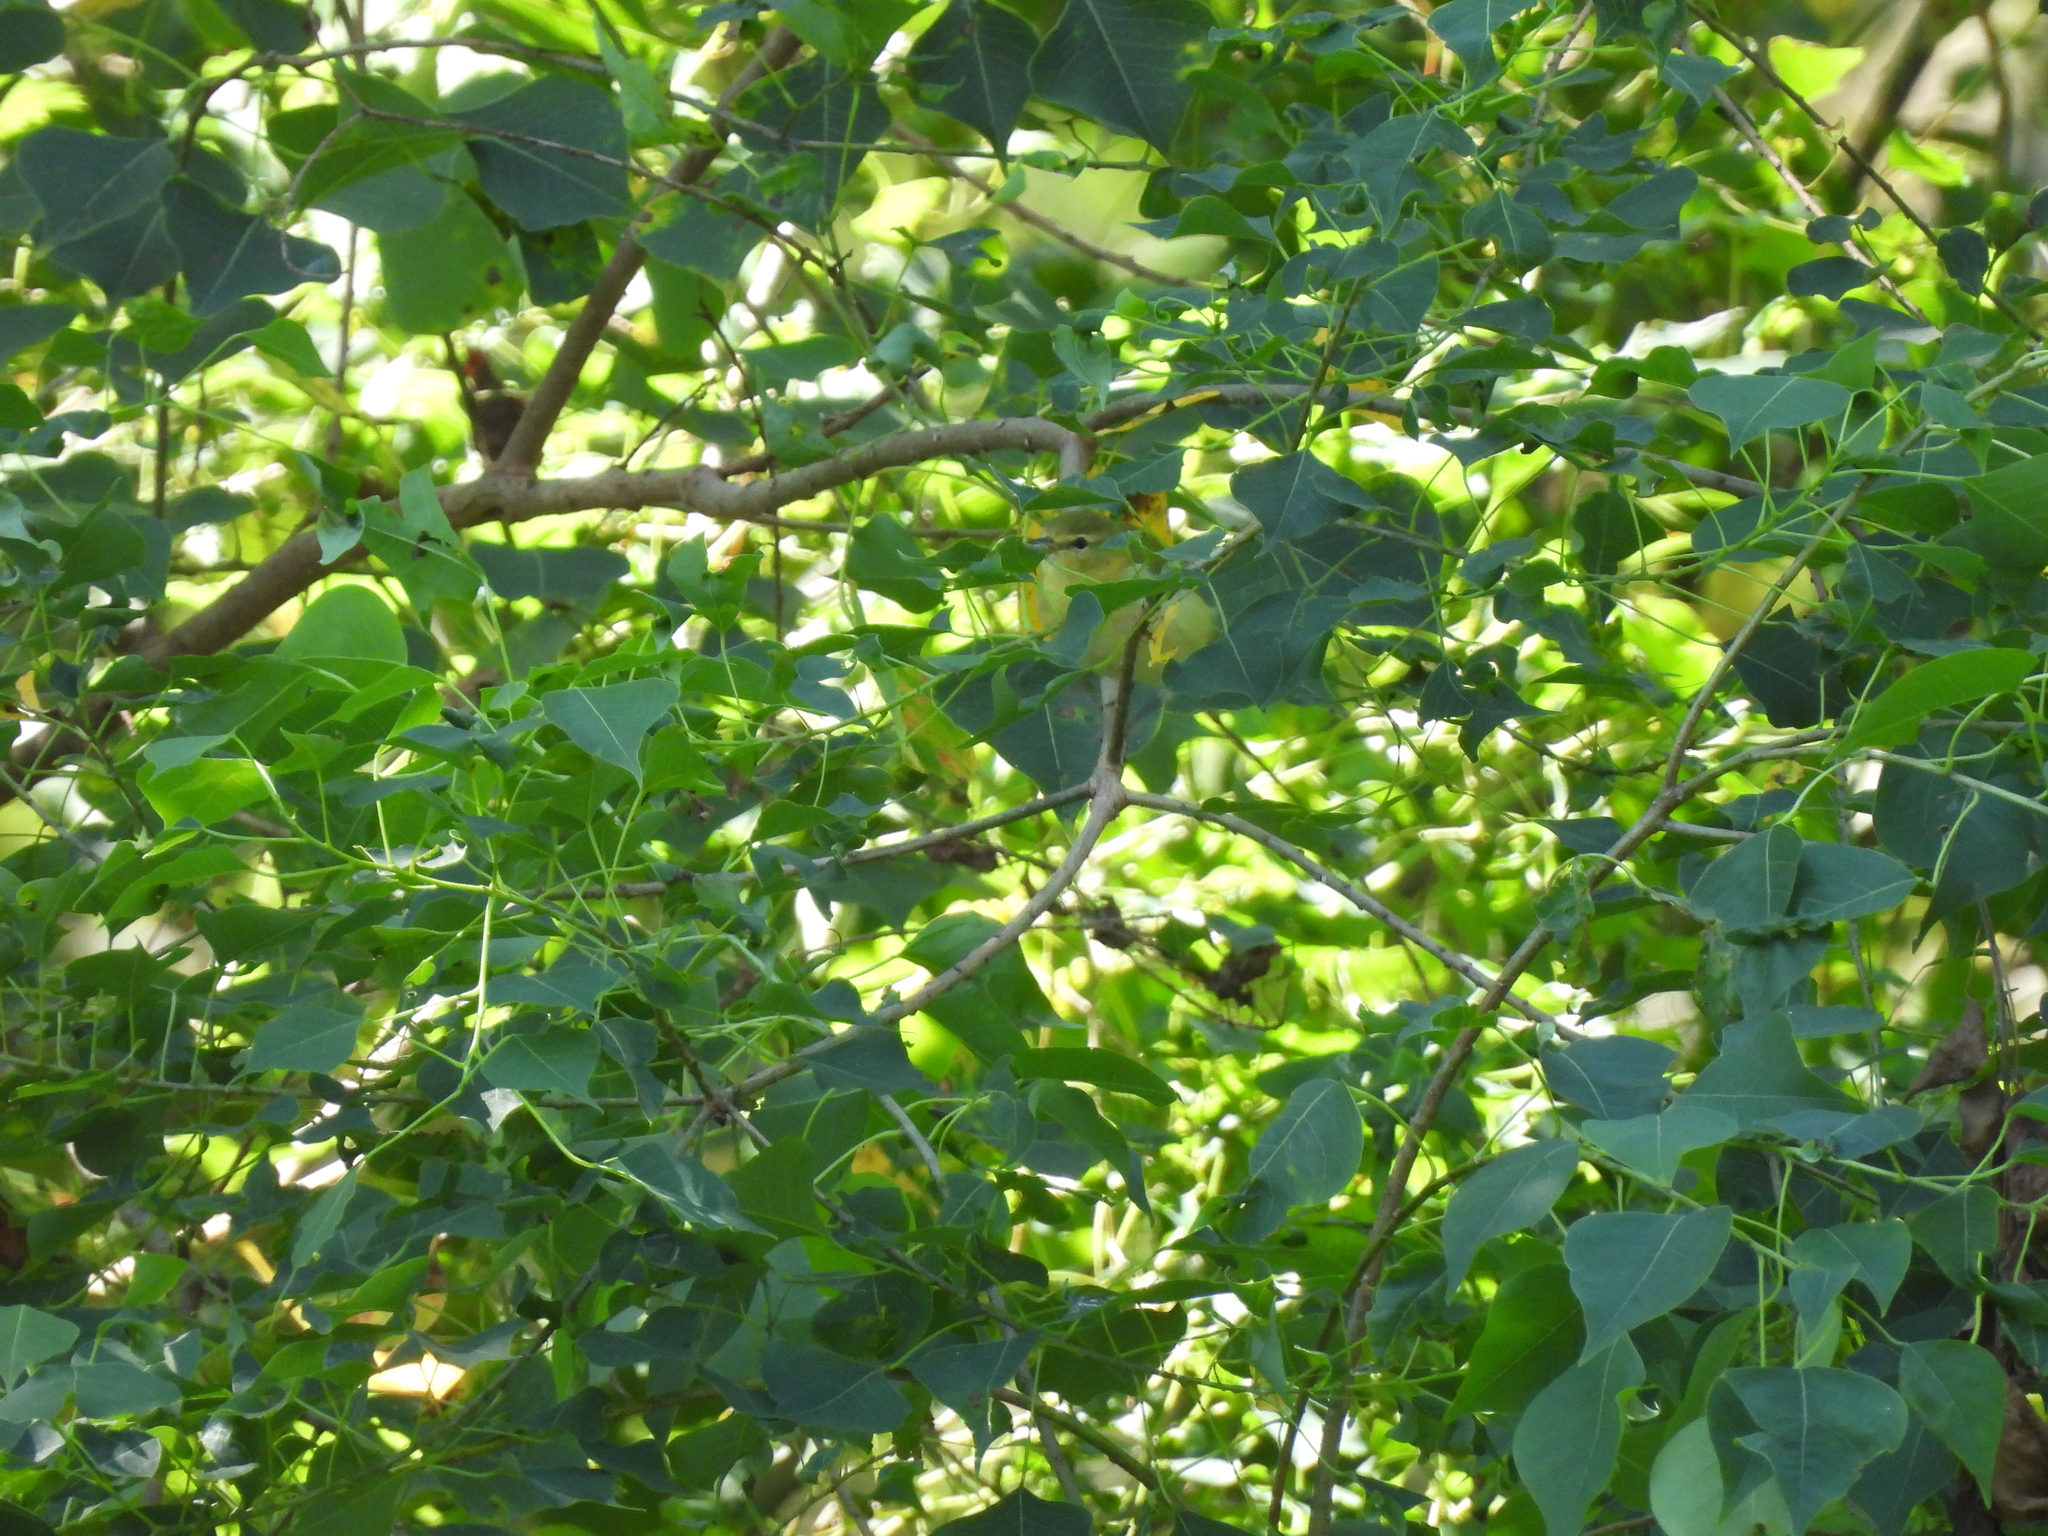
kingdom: Animalia
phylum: Chordata
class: Aves
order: Passeriformes
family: Parulidae
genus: Leiothlypis
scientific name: Leiothlypis peregrina
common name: Tennessee warbler
